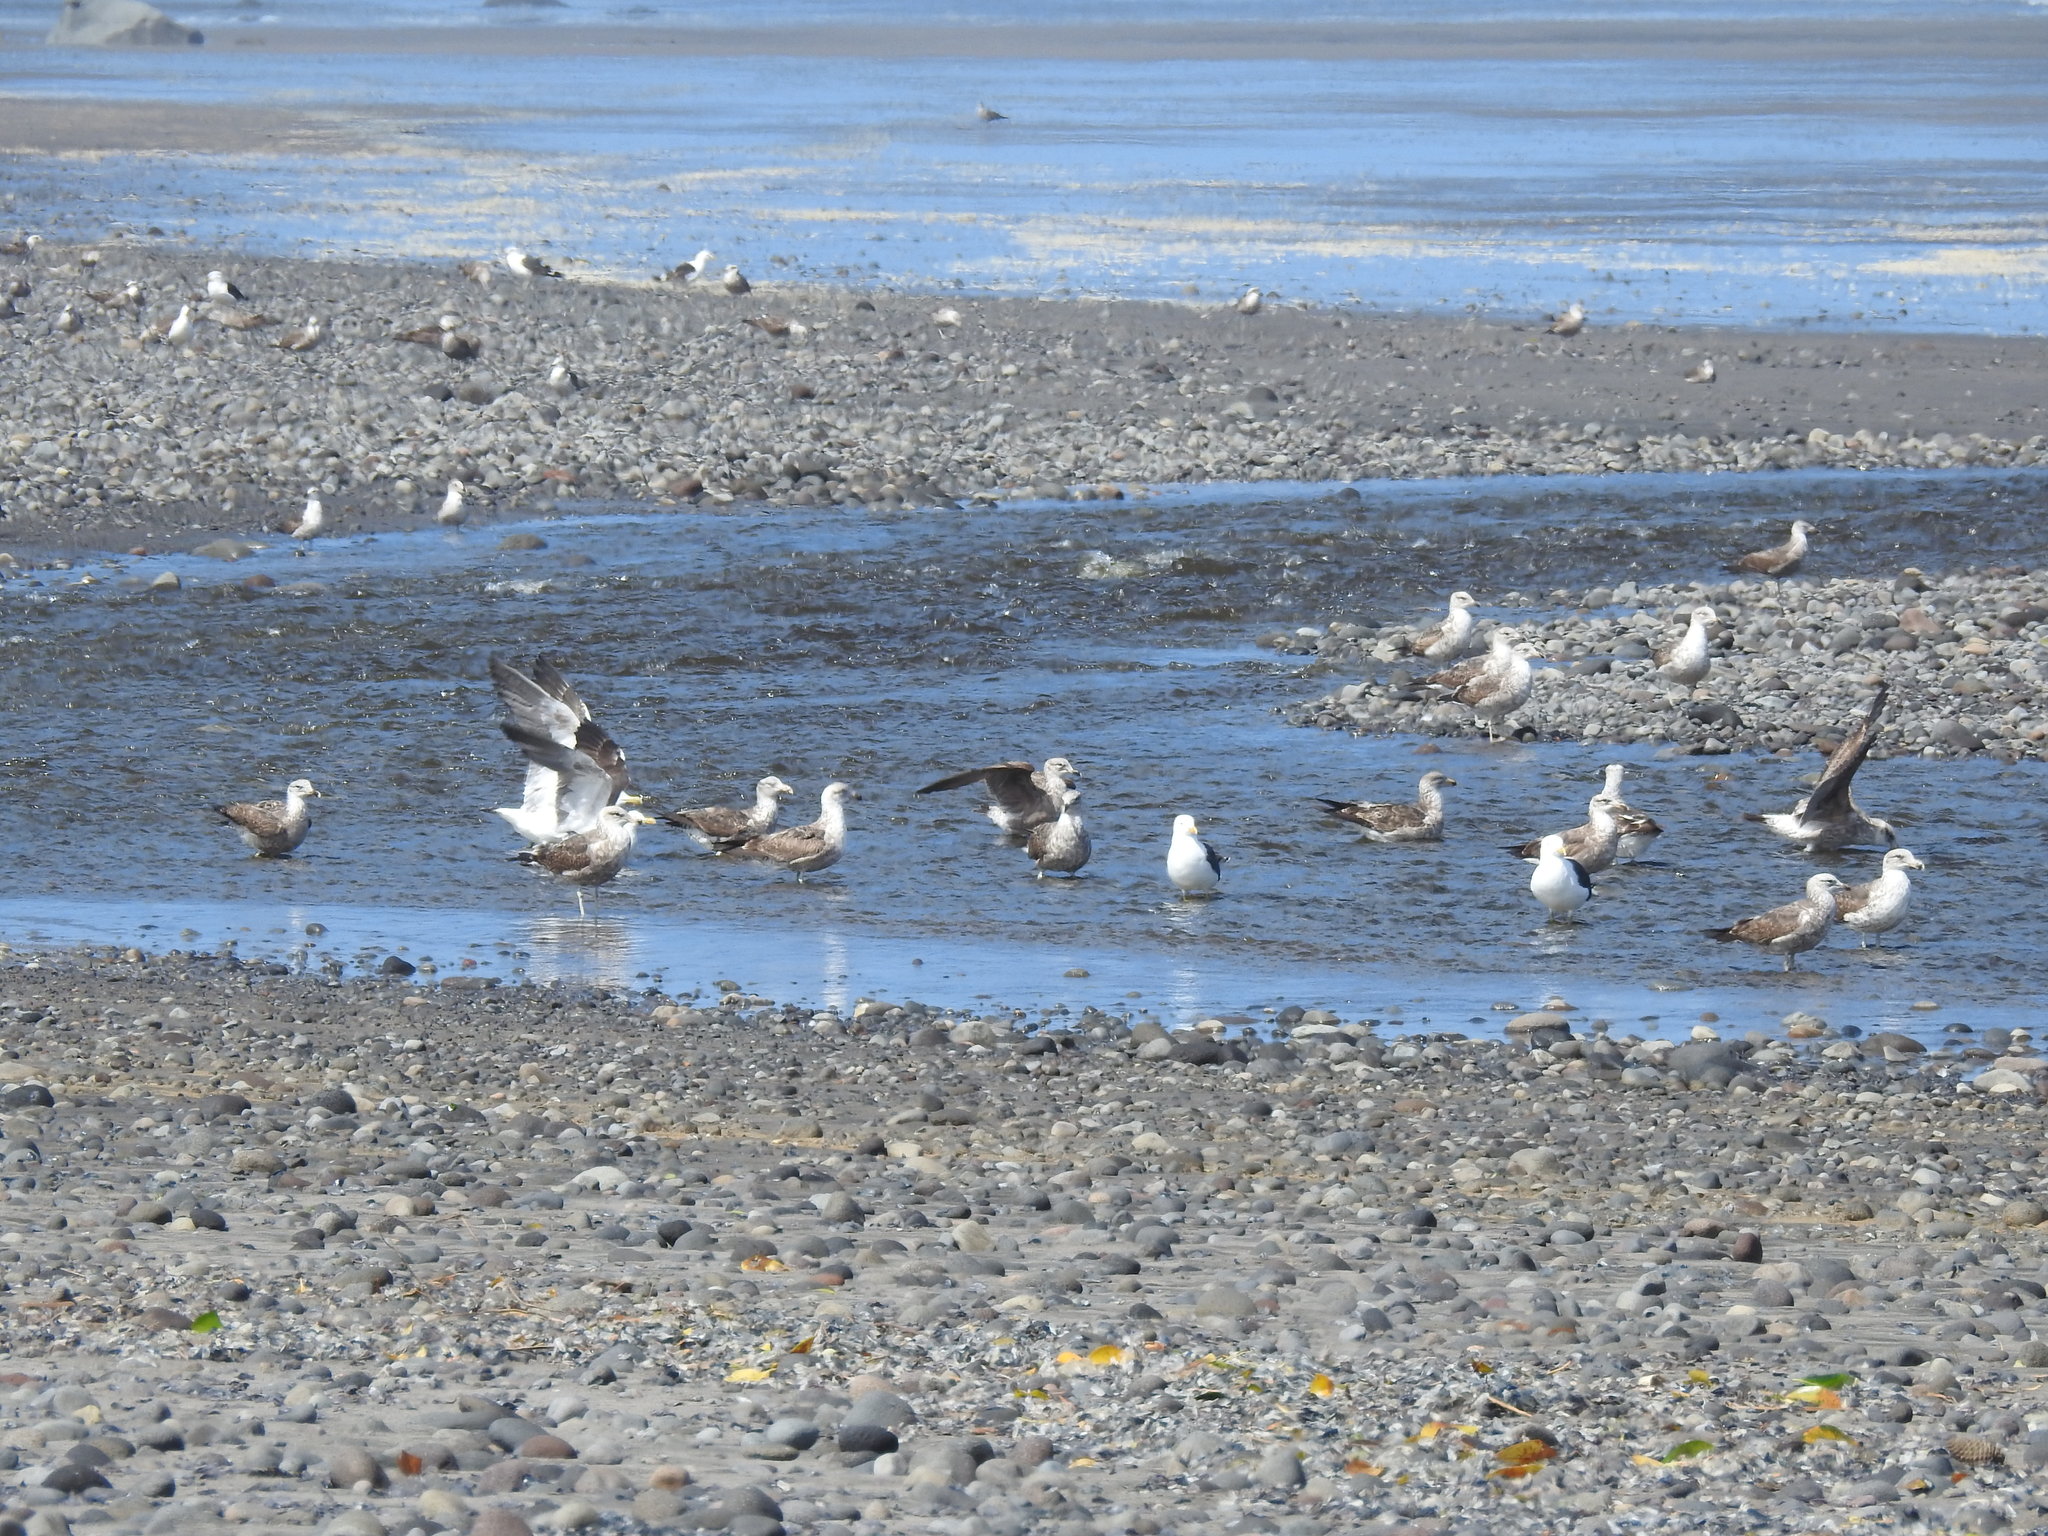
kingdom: Animalia
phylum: Chordata
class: Aves
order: Charadriiformes
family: Laridae
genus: Larus
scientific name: Larus dominicanus
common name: Kelp gull
